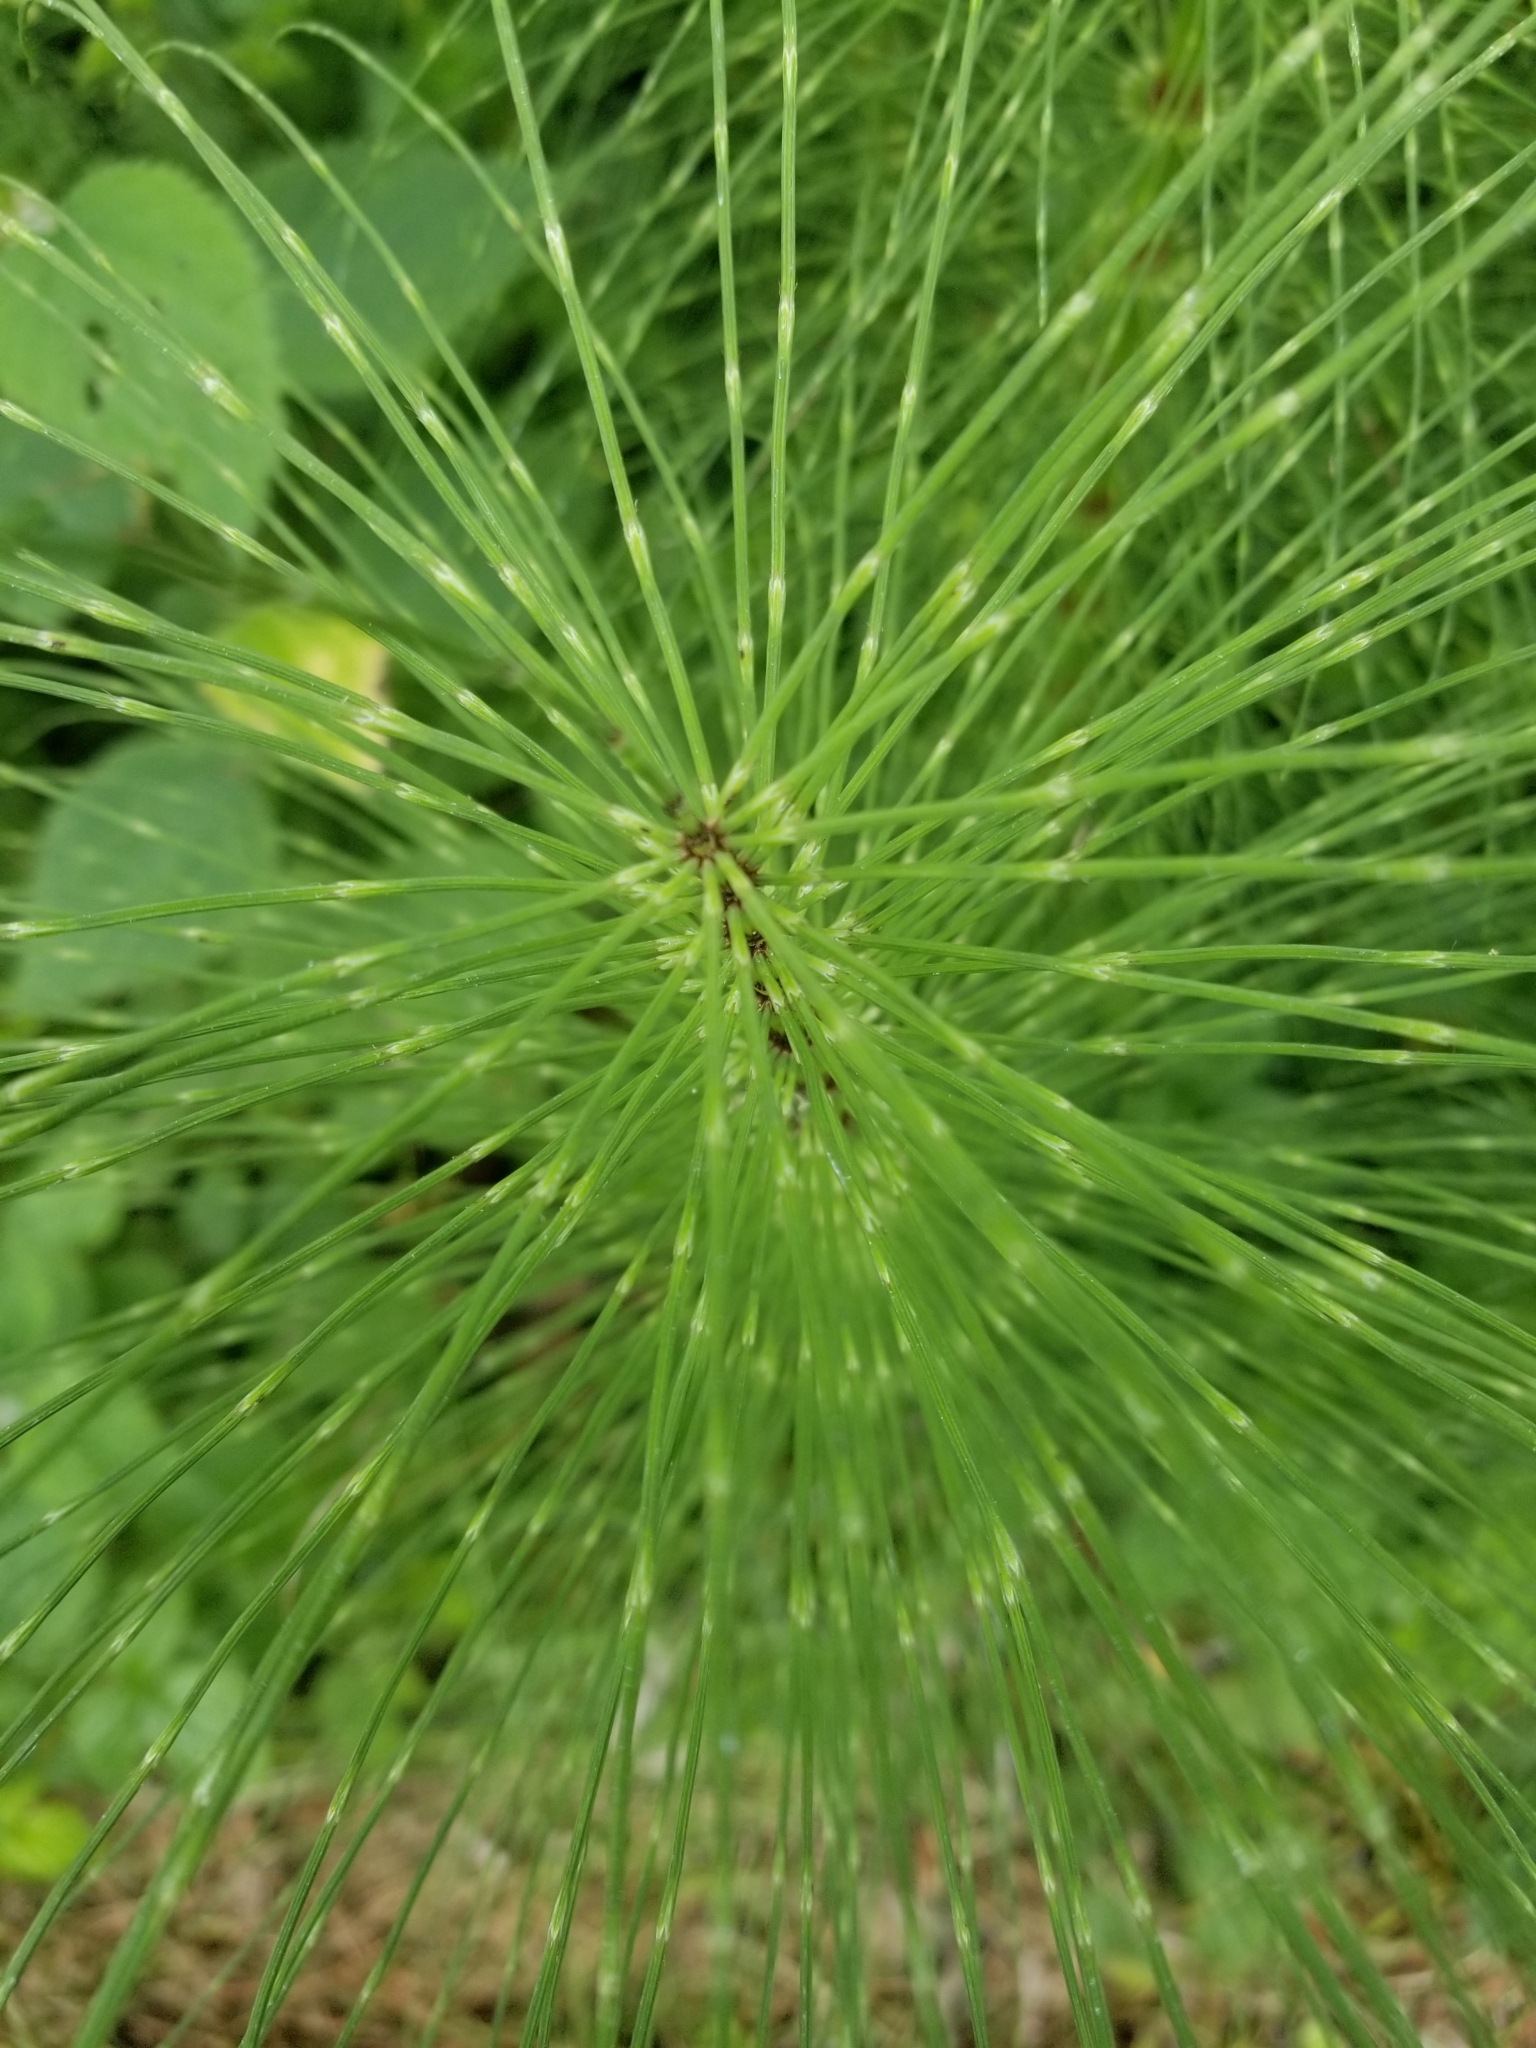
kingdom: Plantae
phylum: Tracheophyta
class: Polypodiopsida
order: Equisetales
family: Equisetaceae
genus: Equisetum
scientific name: Equisetum telmateia
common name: Great horsetail
